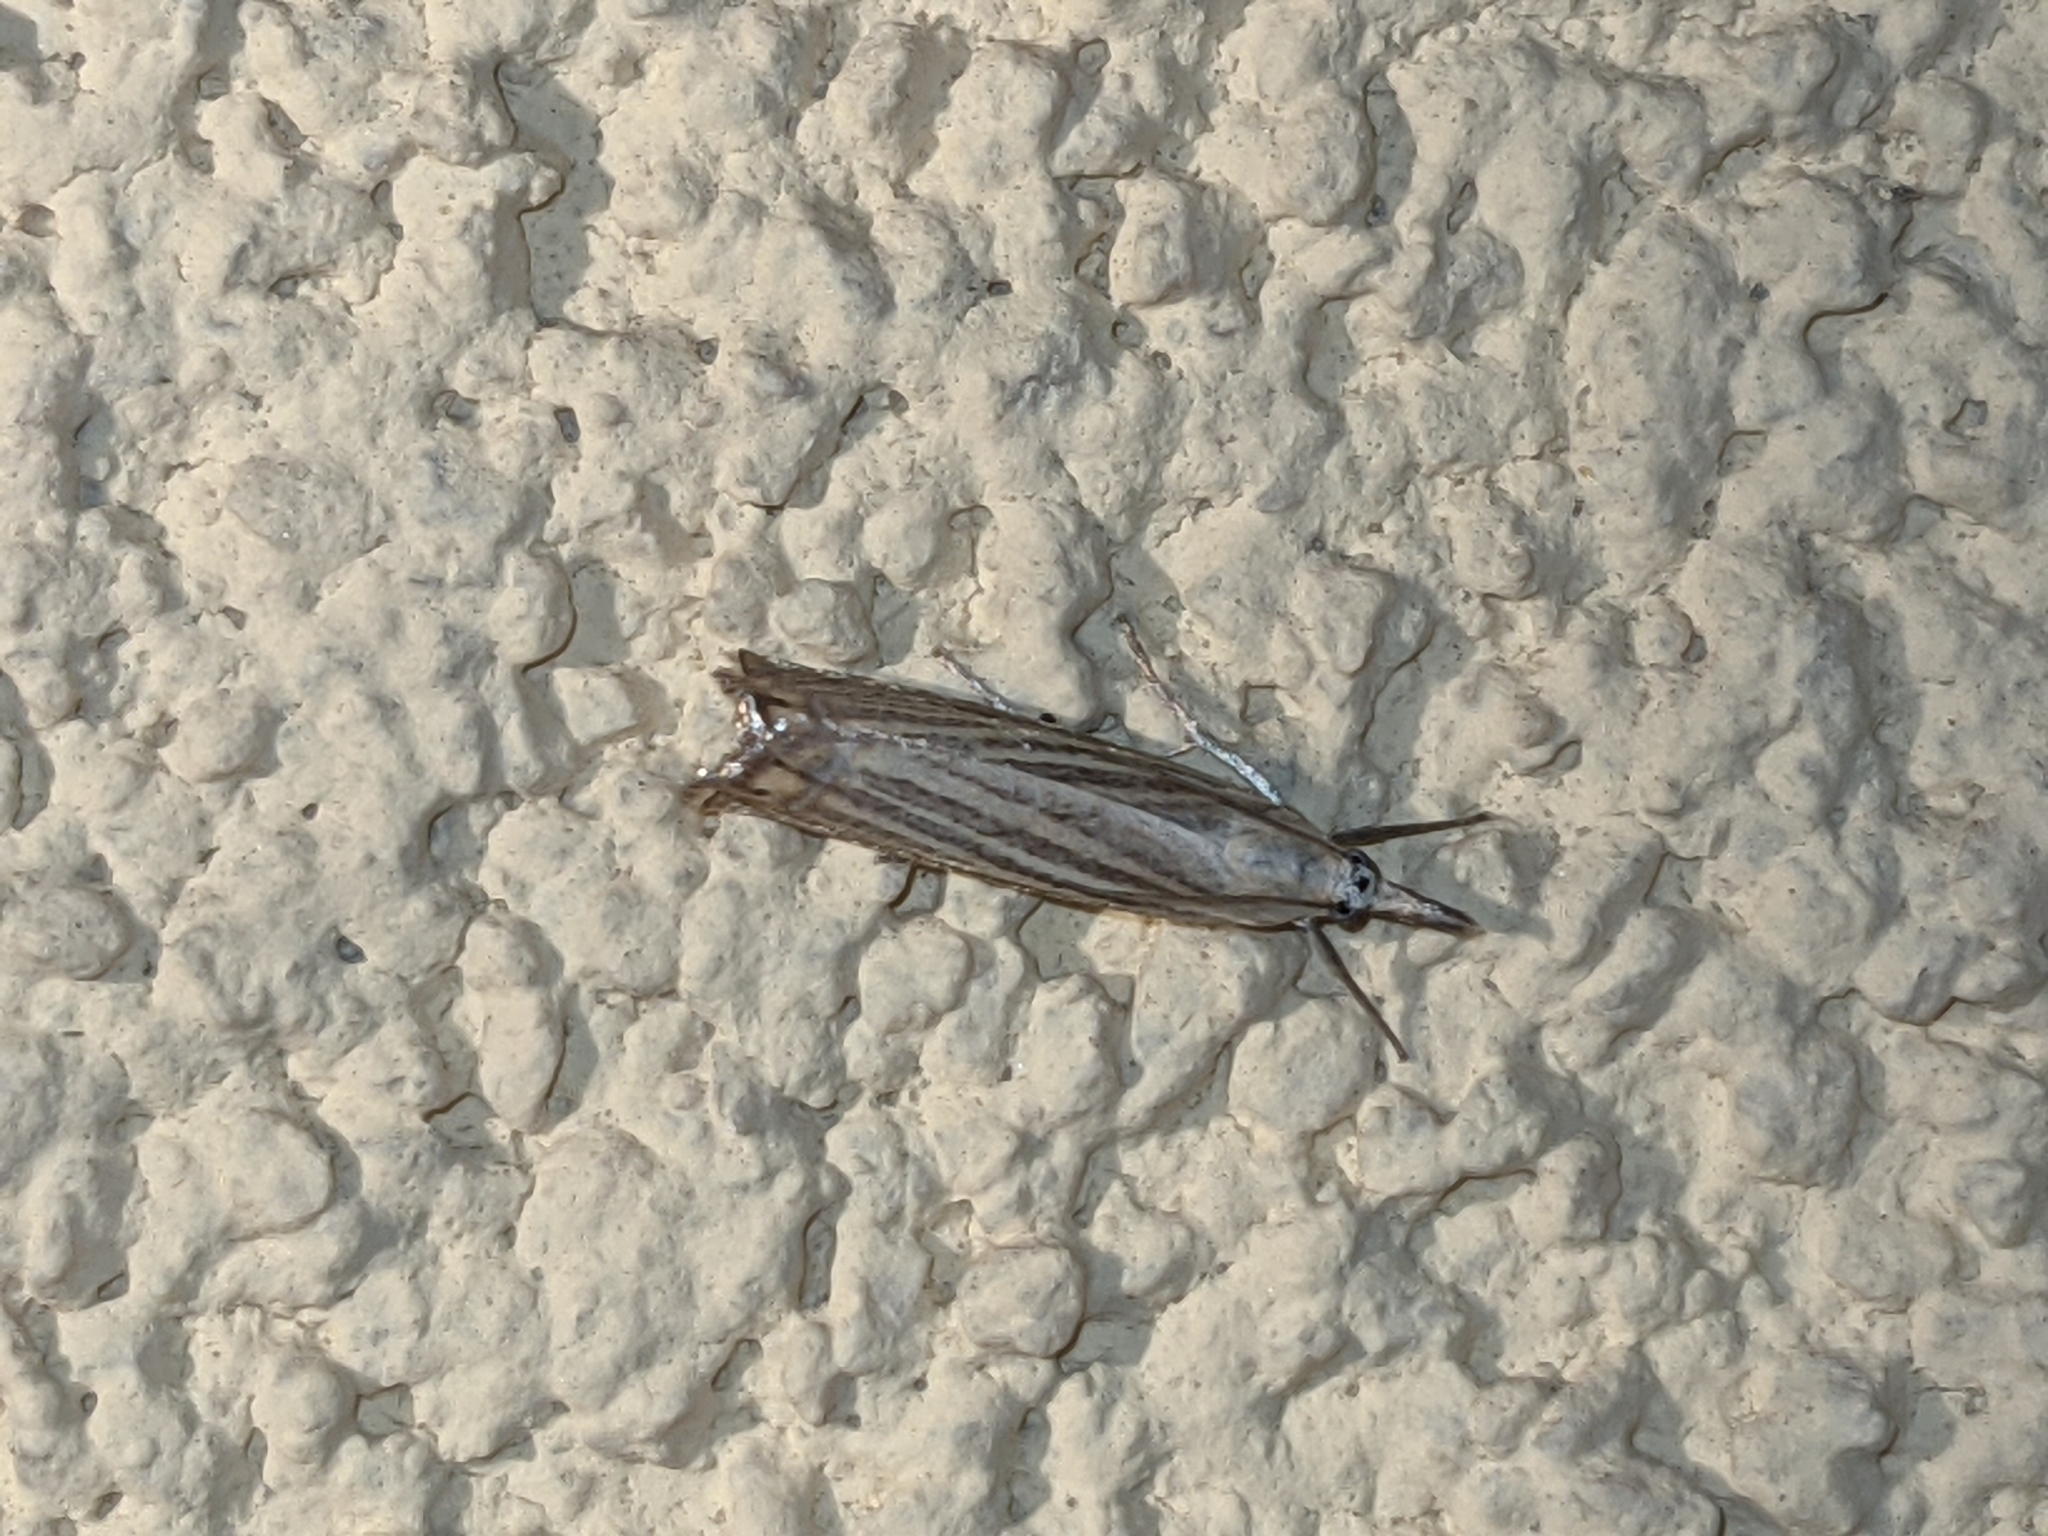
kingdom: Animalia
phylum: Arthropoda
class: Insecta
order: Lepidoptera
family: Crambidae
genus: Chrysoteuchia
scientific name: Chrysoteuchia culmella
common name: Garden grass-veneer
